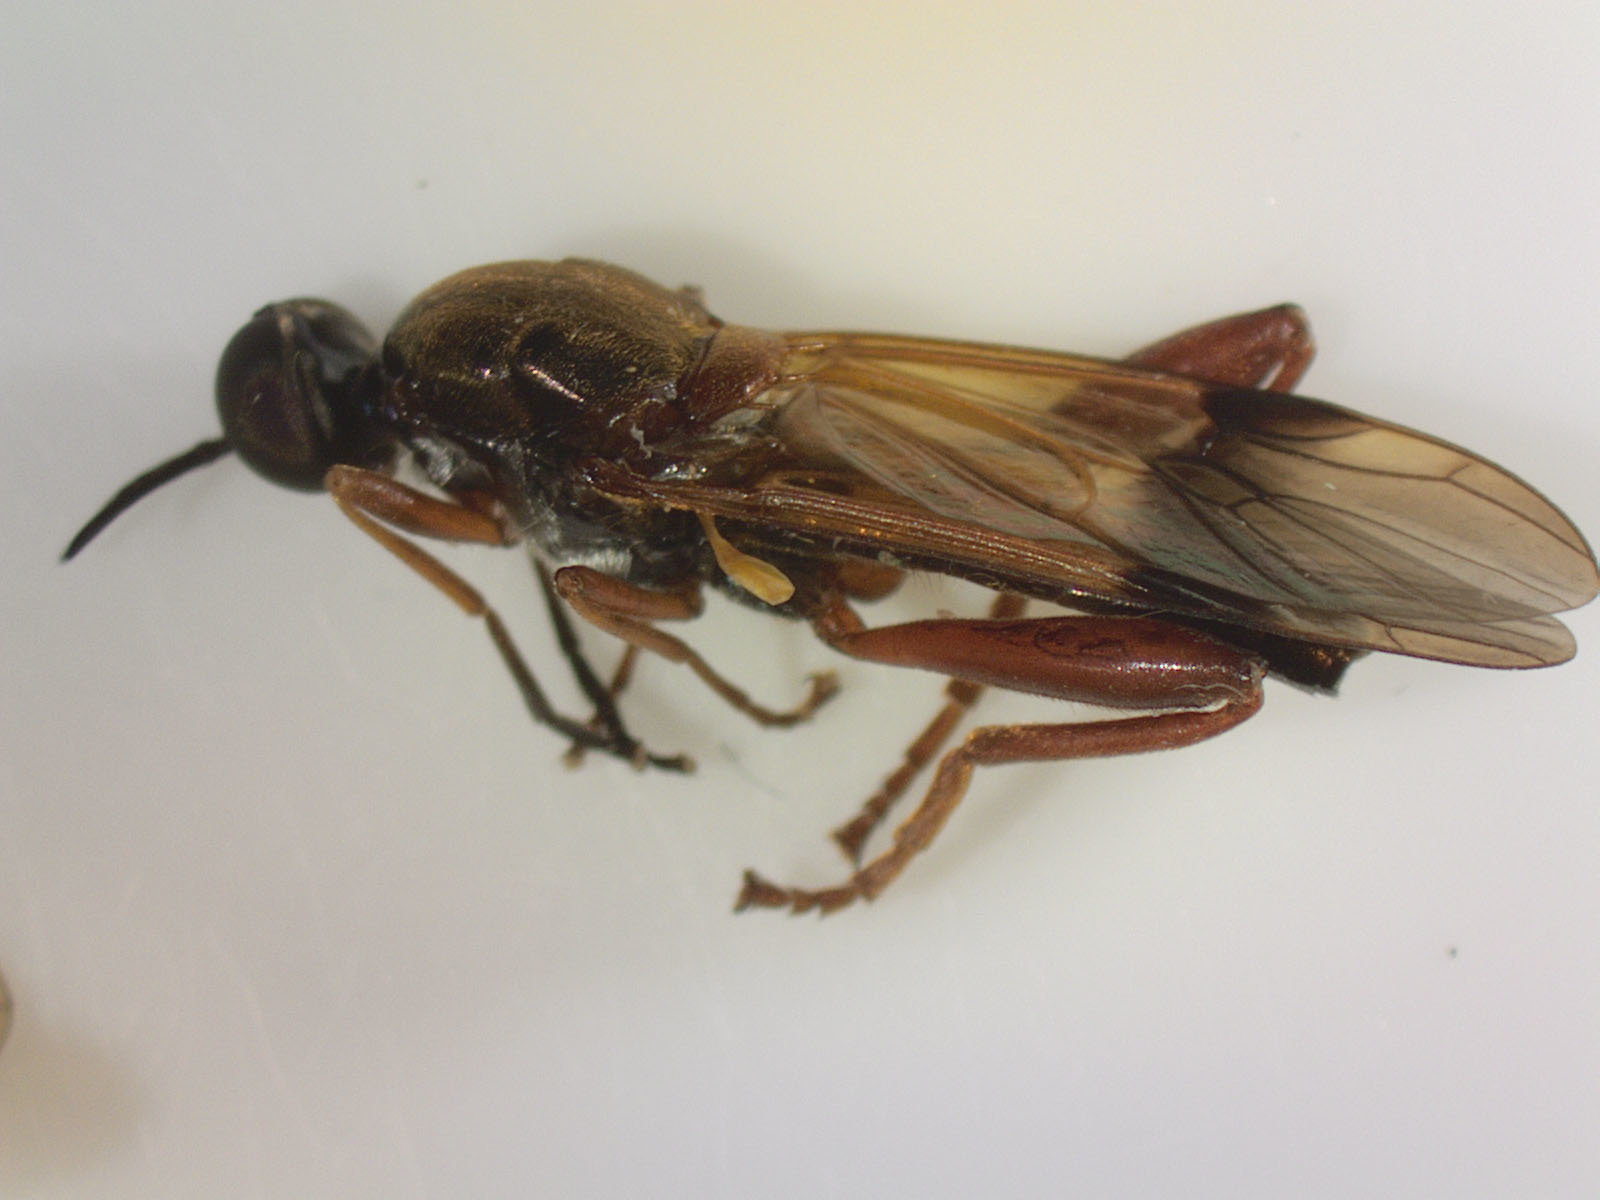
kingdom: Animalia
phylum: Arthropoda
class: Insecta
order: Diptera
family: Stratiomyidae
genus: Benhamyia
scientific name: Benhamyia apicalis
